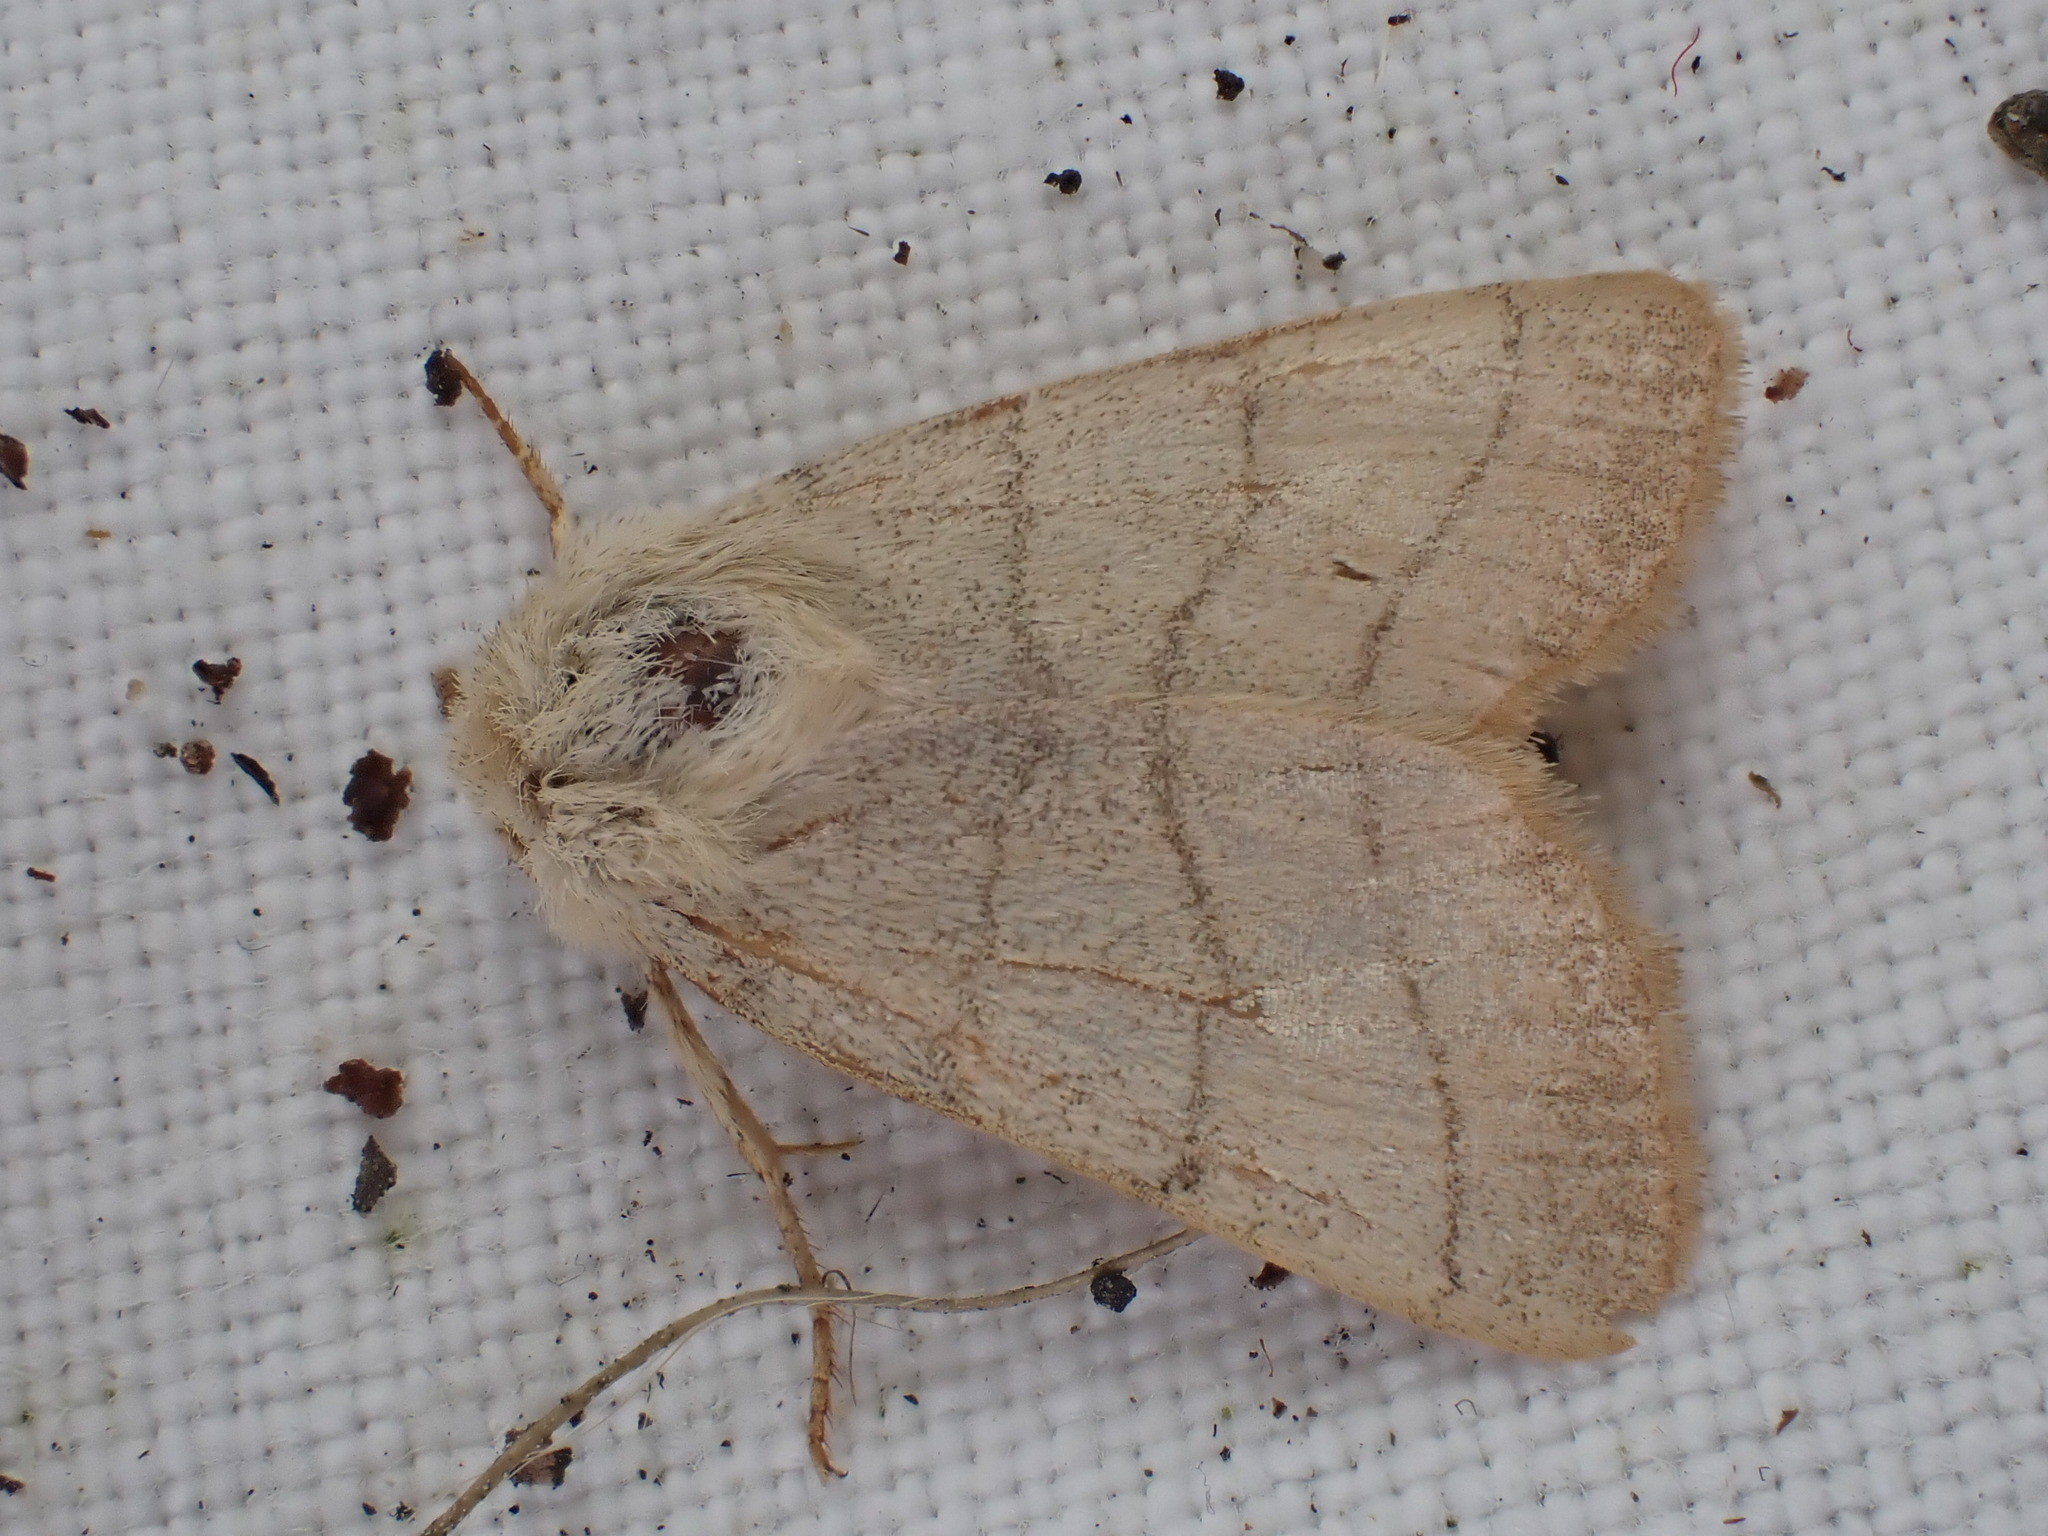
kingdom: Animalia
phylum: Arthropoda
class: Insecta
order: Lepidoptera
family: Noctuidae
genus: Charanyca
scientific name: Charanyca trigrammica
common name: Treble lines
